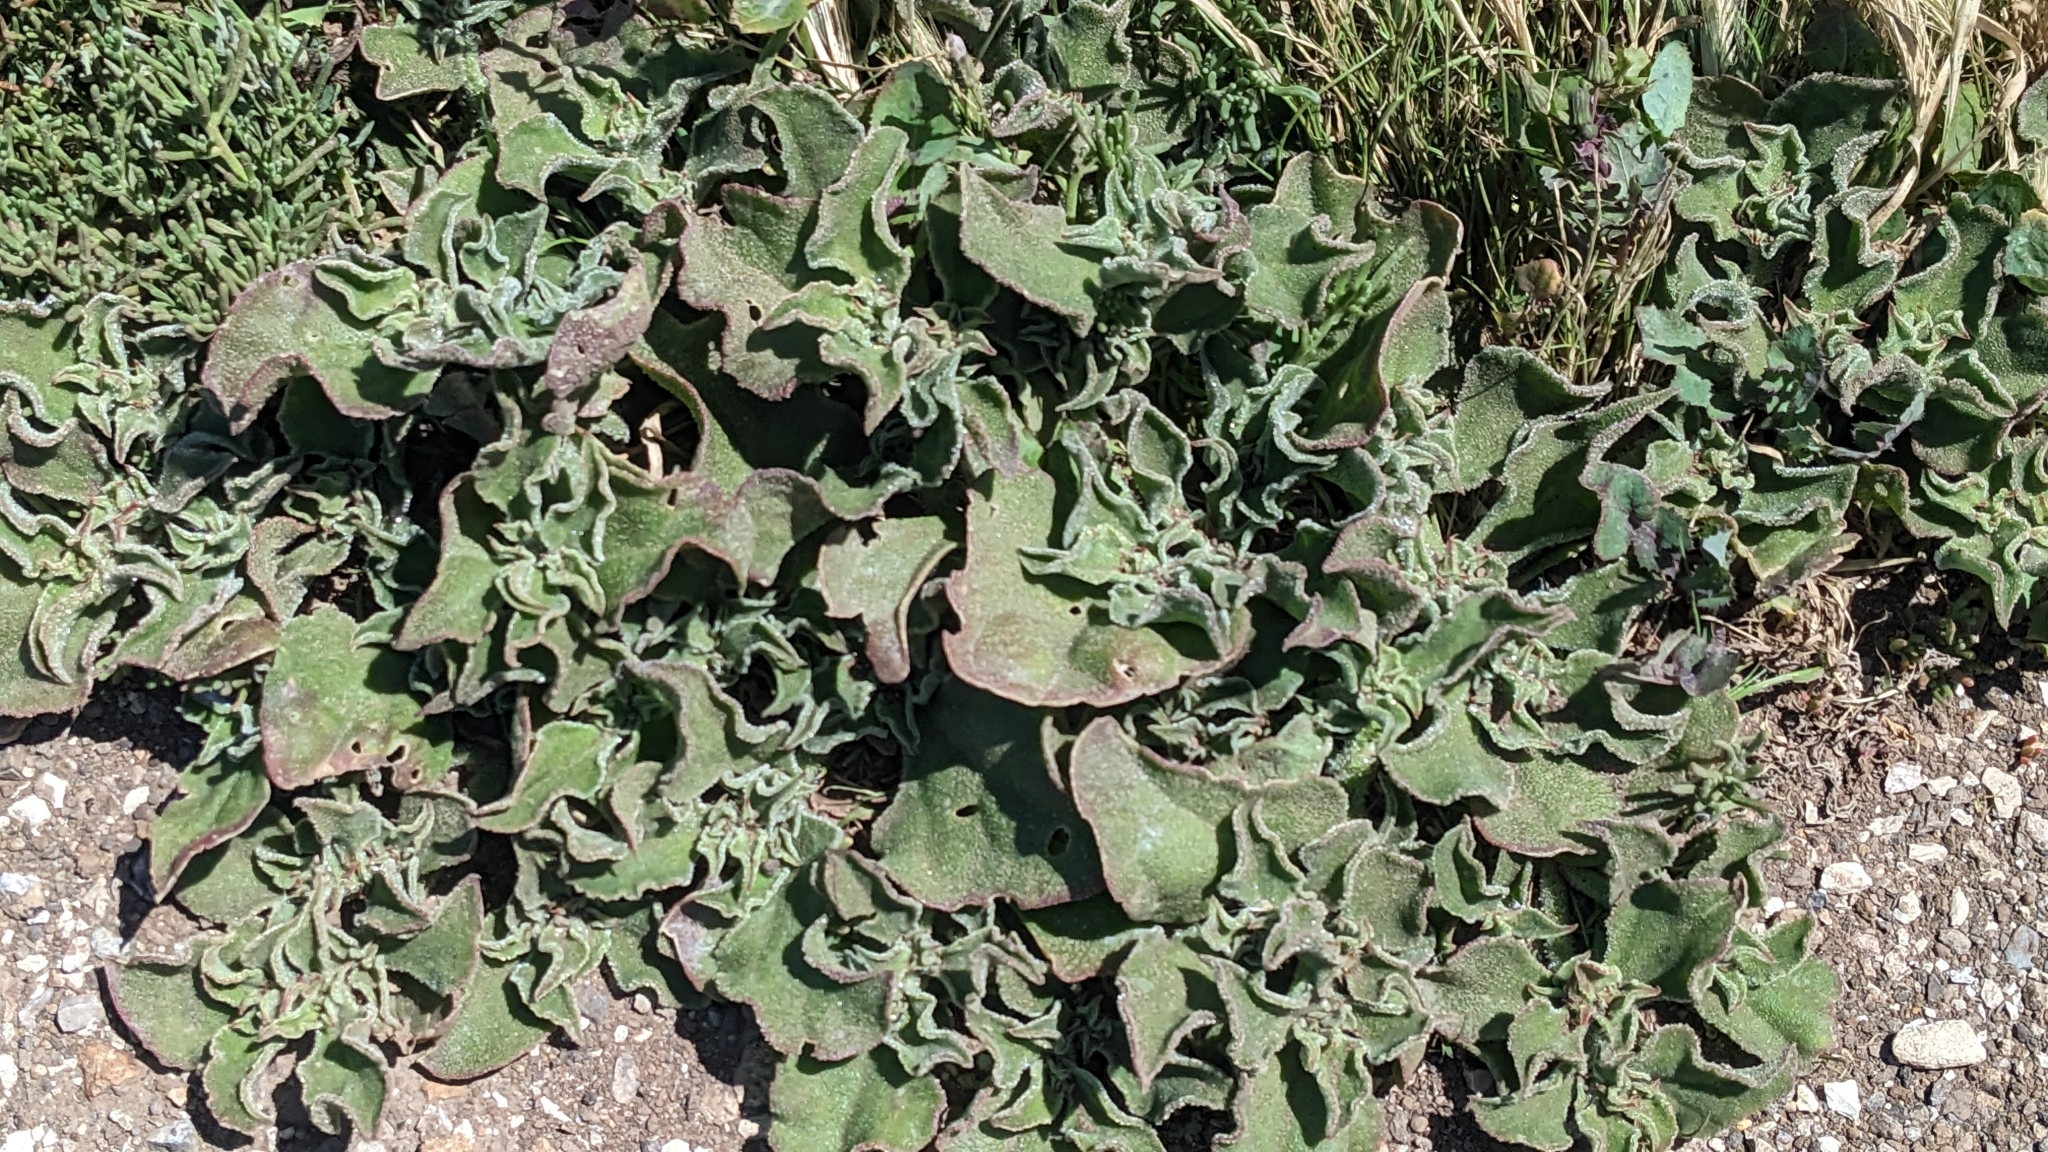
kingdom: Plantae
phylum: Tracheophyta
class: Magnoliopsida
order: Caryophyllales
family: Aizoaceae
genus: Mesembryanthemum
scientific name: Mesembryanthemum crystallinum
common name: Common iceplant
